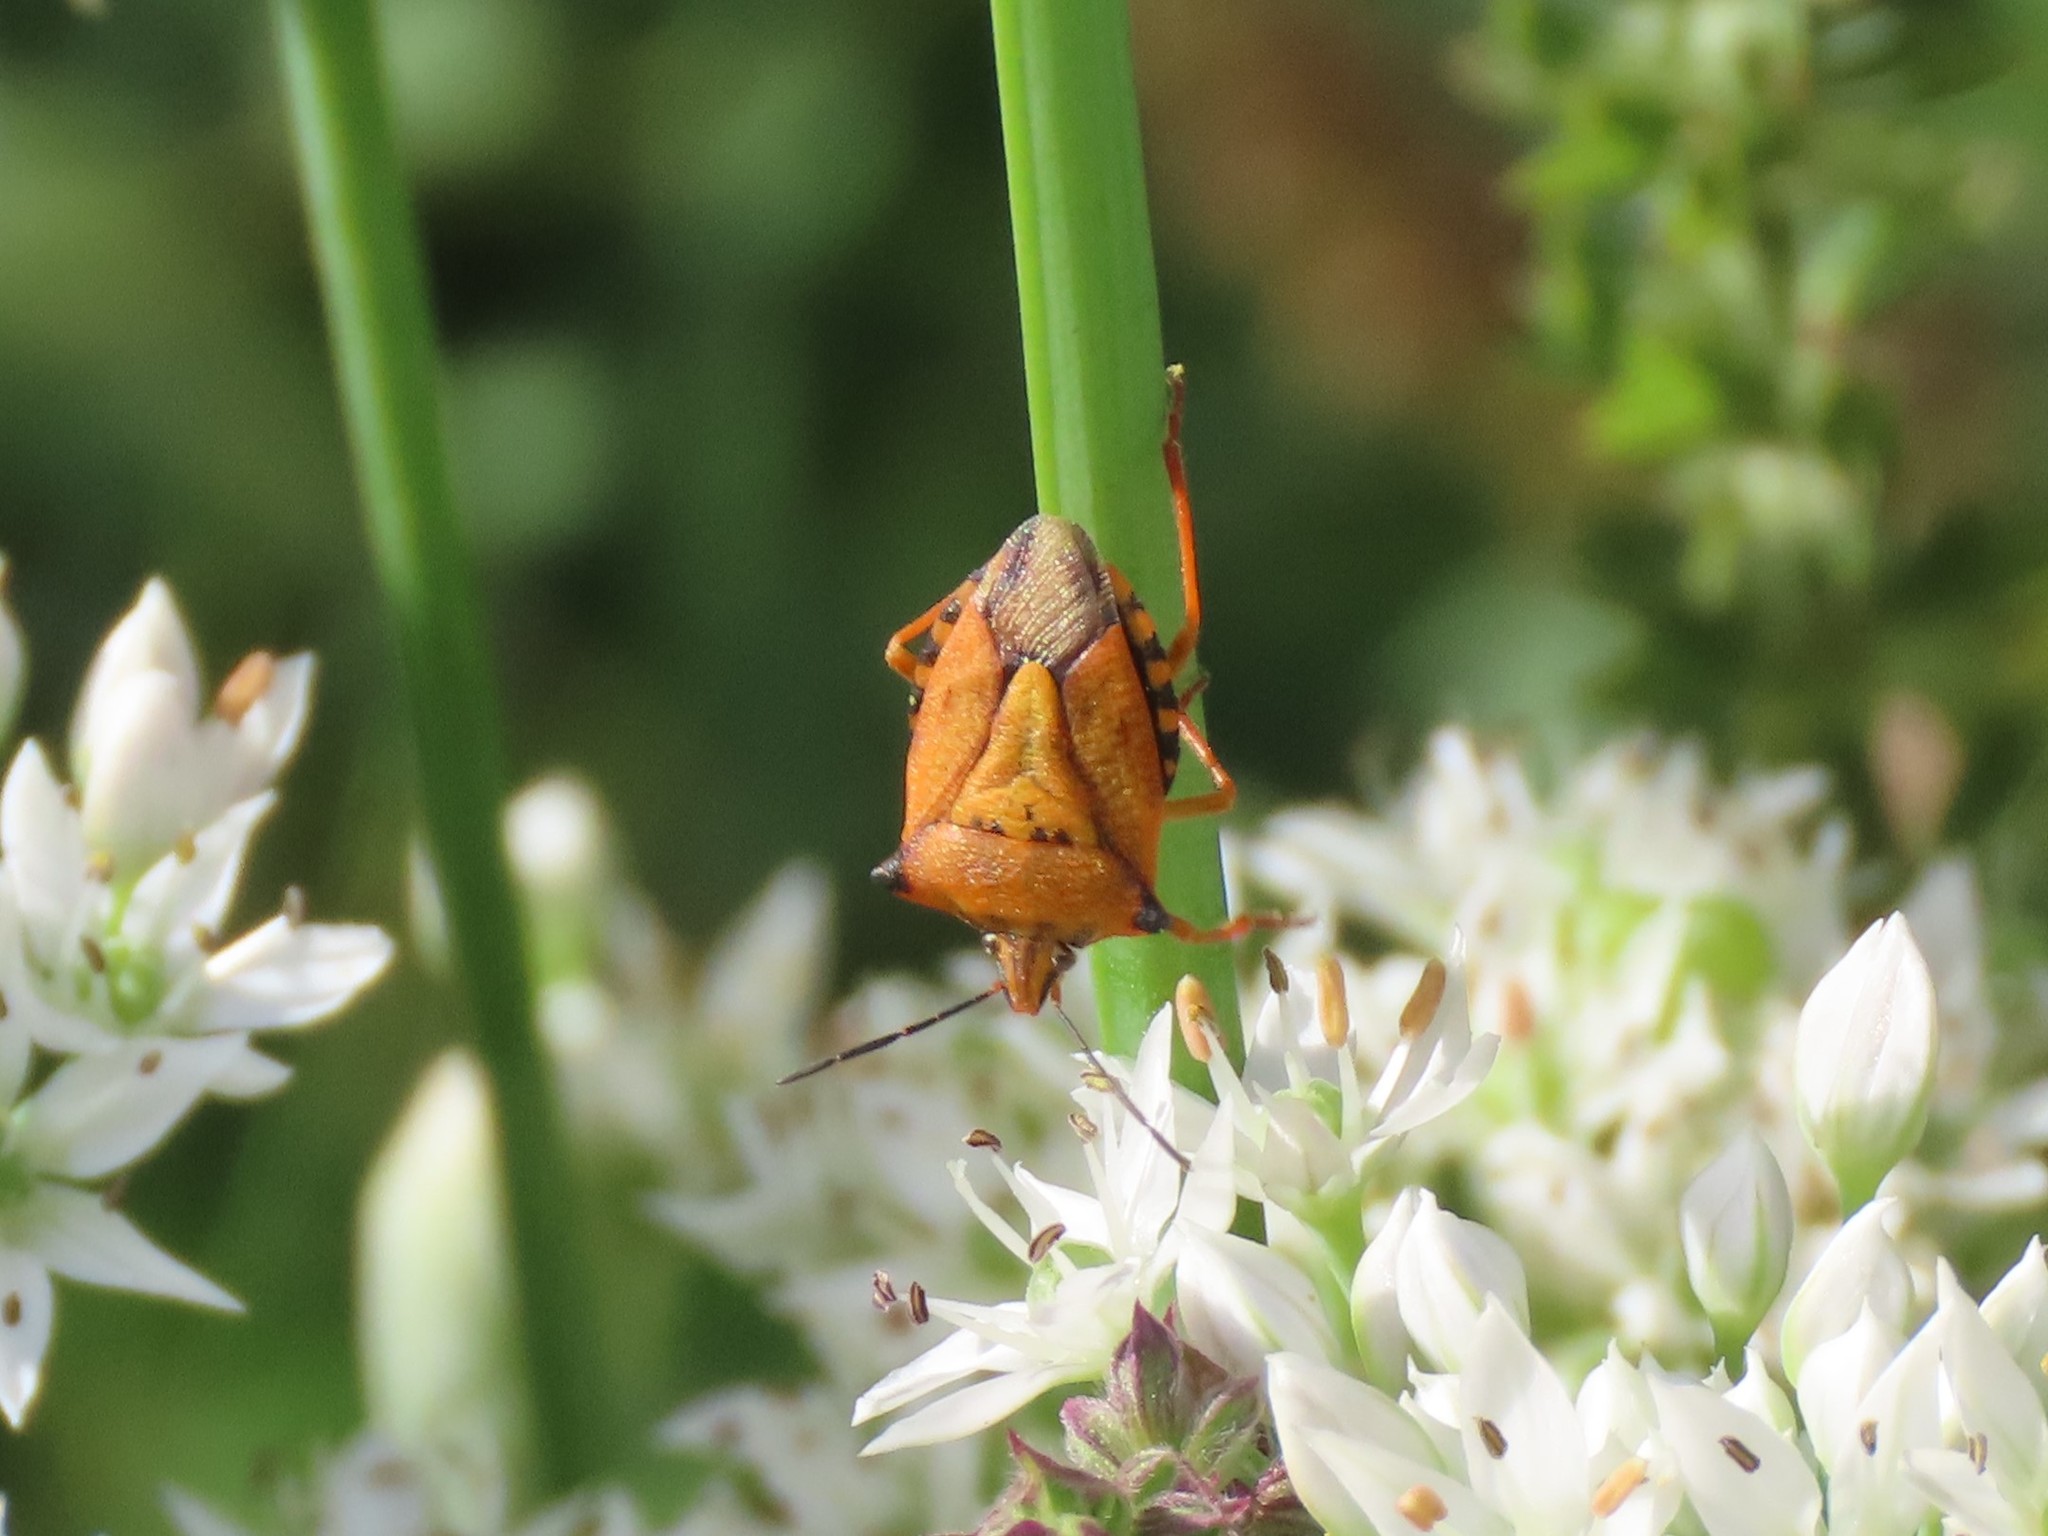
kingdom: Animalia
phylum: Arthropoda
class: Insecta
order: Hemiptera
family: Pentatomidae
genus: Carpocoris
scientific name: Carpocoris mediterraneus
